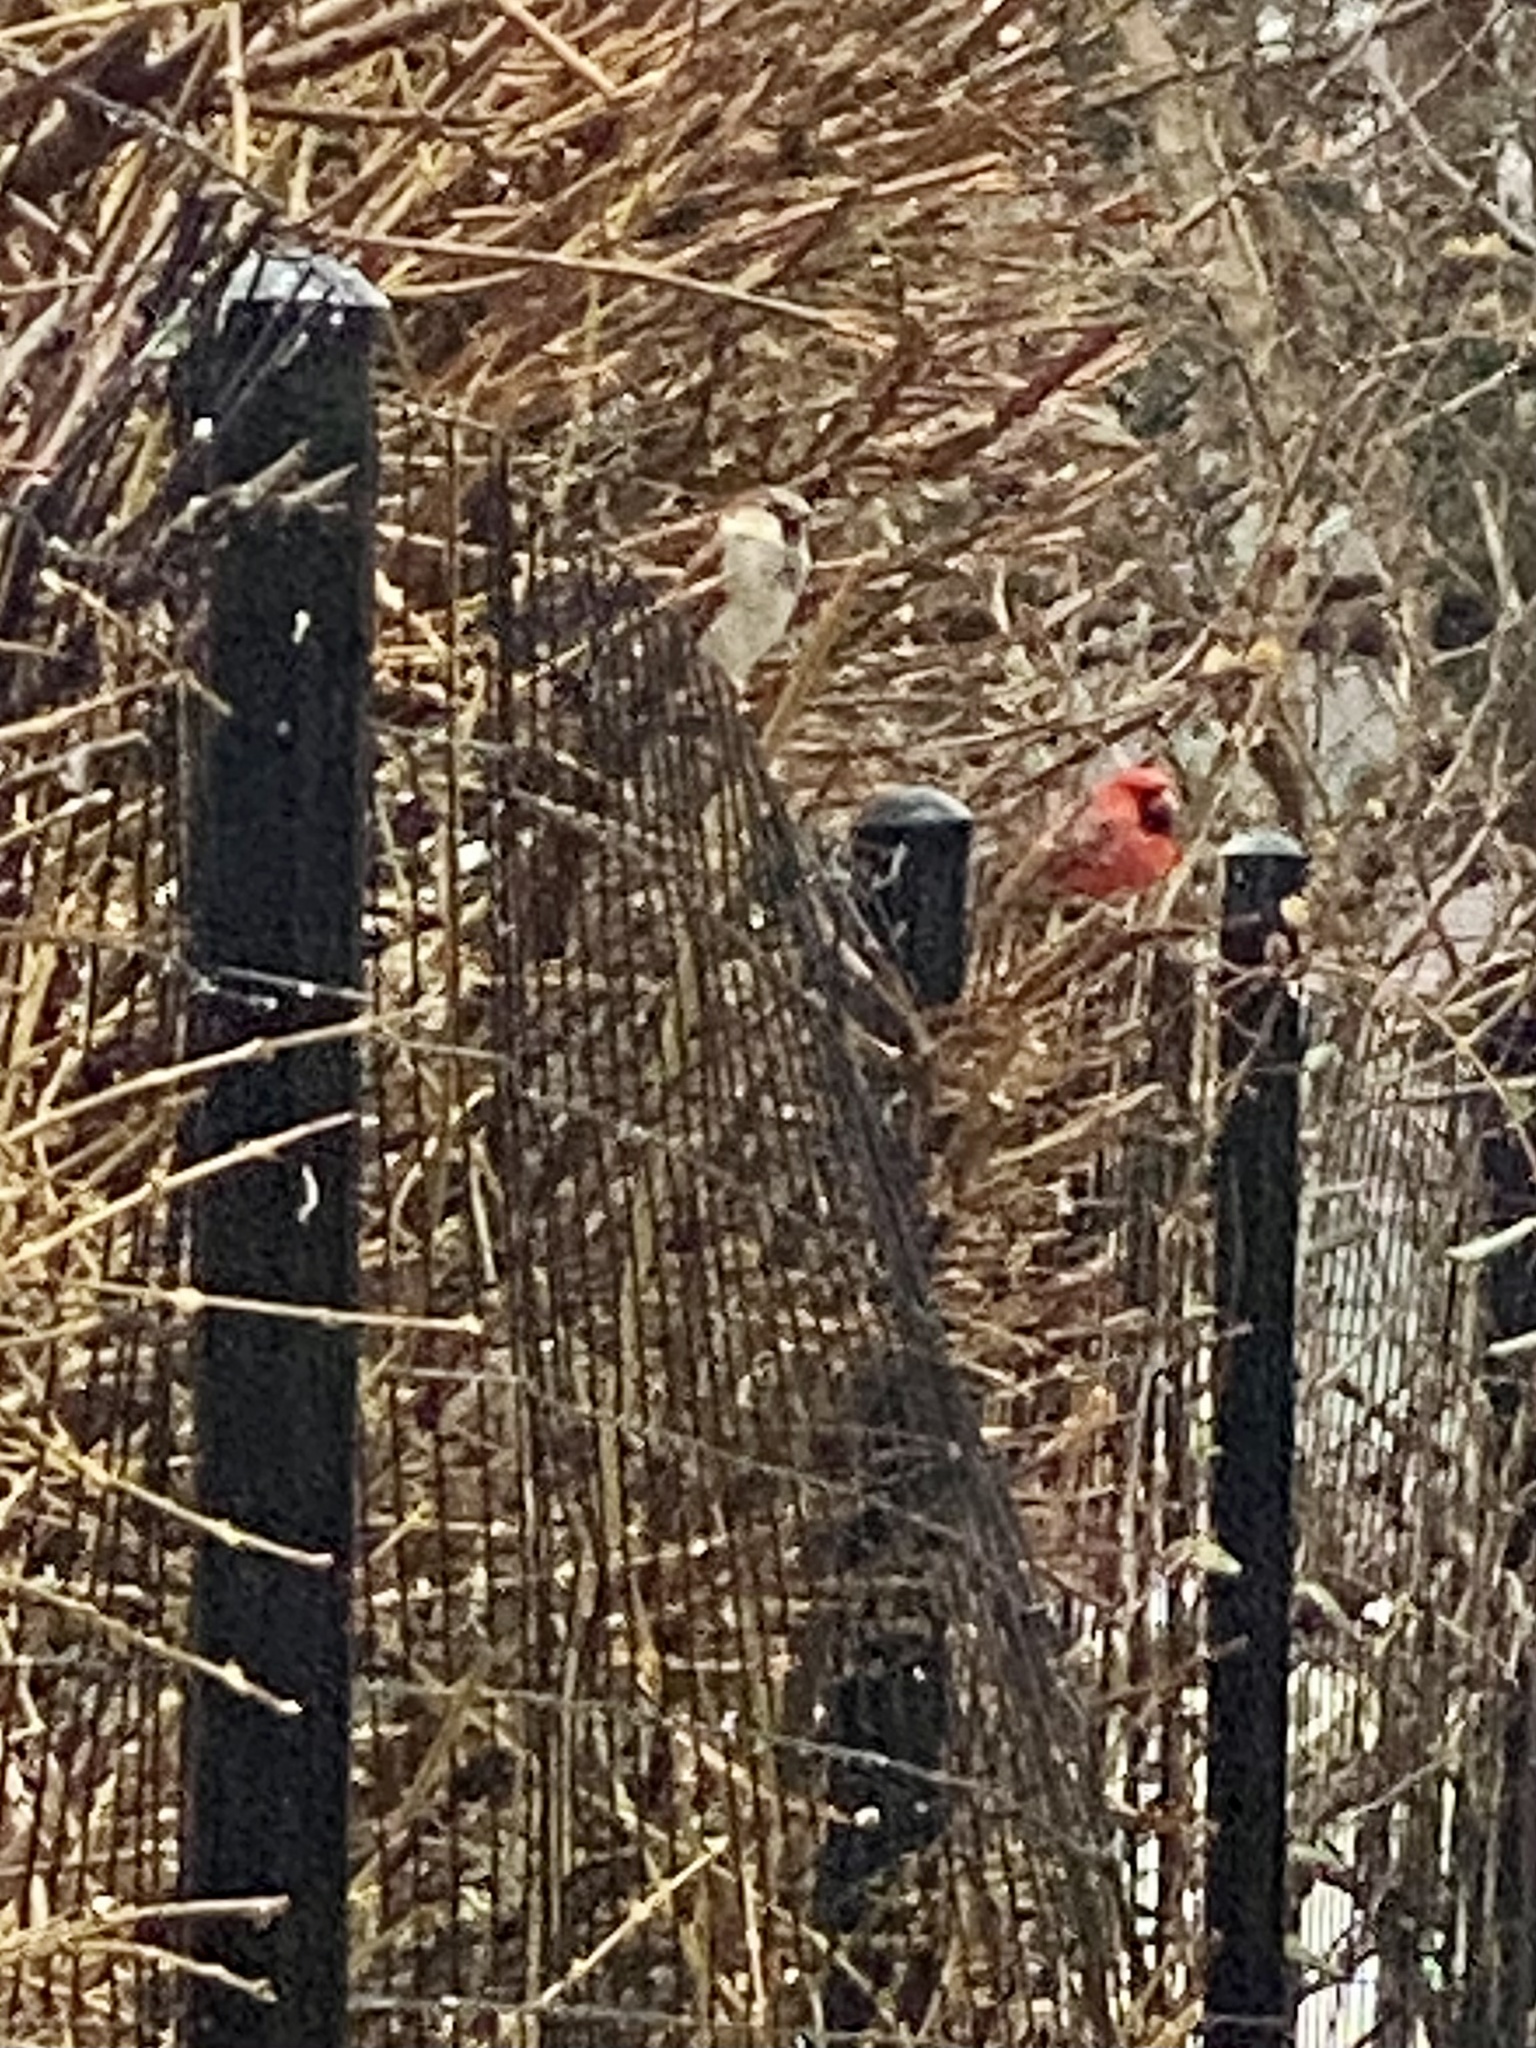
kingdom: Animalia
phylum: Chordata
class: Aves
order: Passeriformes
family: Cardinalidae
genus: Cardinalis
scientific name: Cardinalis cardinalis
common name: Northern cardinal
